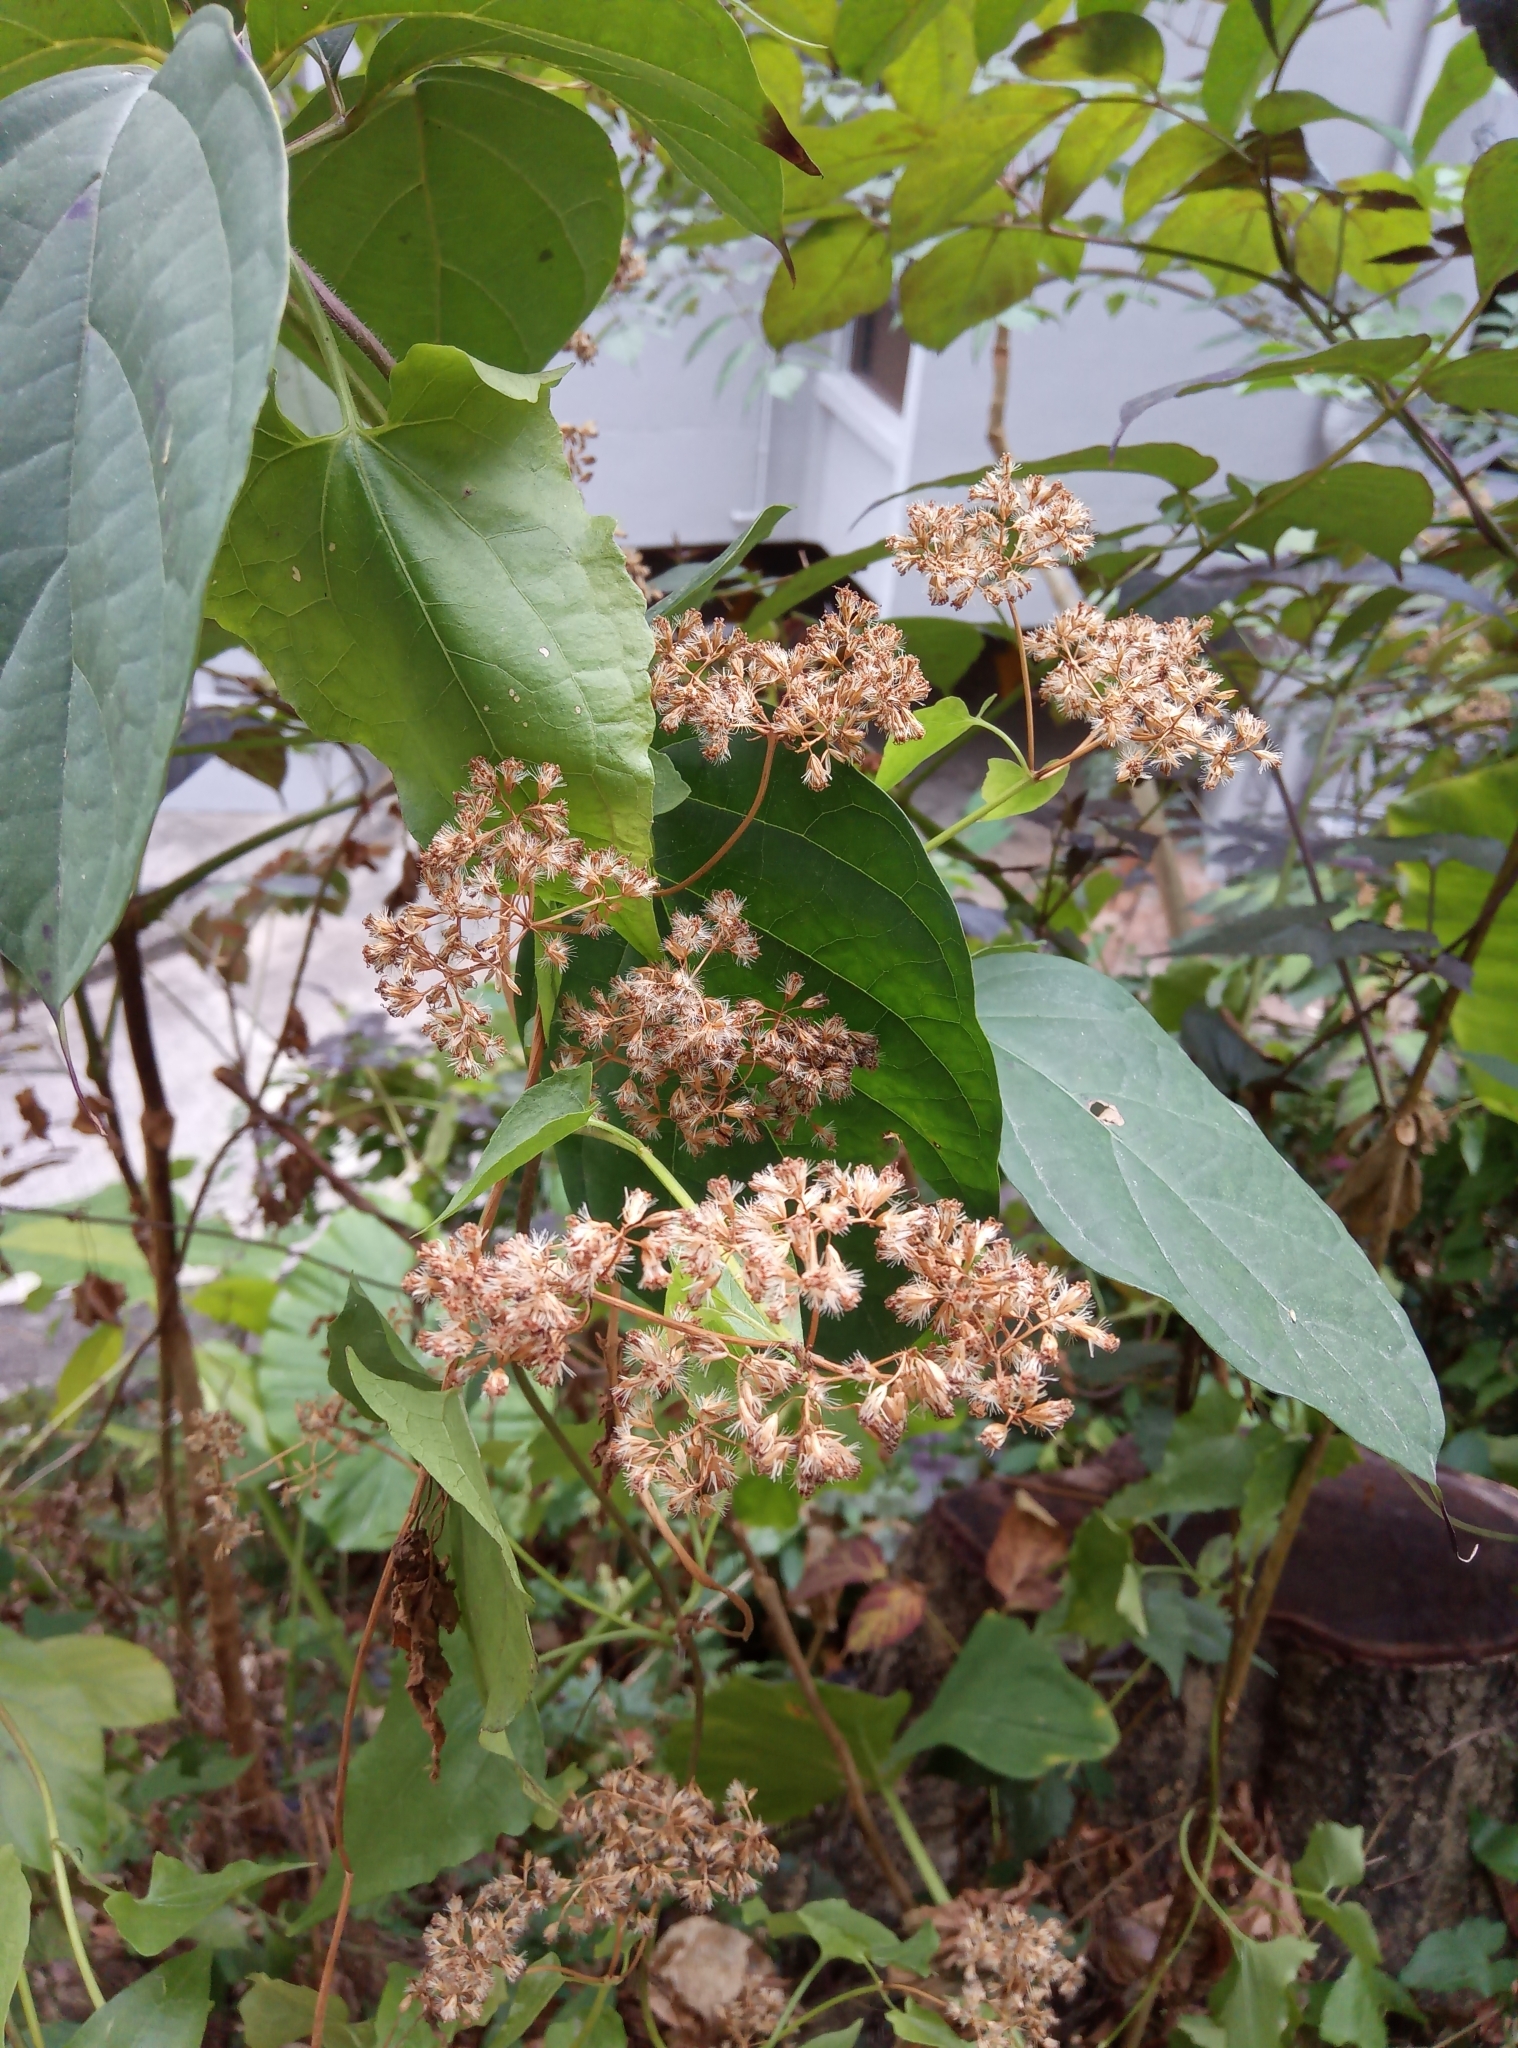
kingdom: Plantae
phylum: Tracheophyta
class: Magnoliopsida
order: Asterales
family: Asteraceae
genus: Mikania
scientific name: Mikania micrantha
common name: Mile-a-minute
